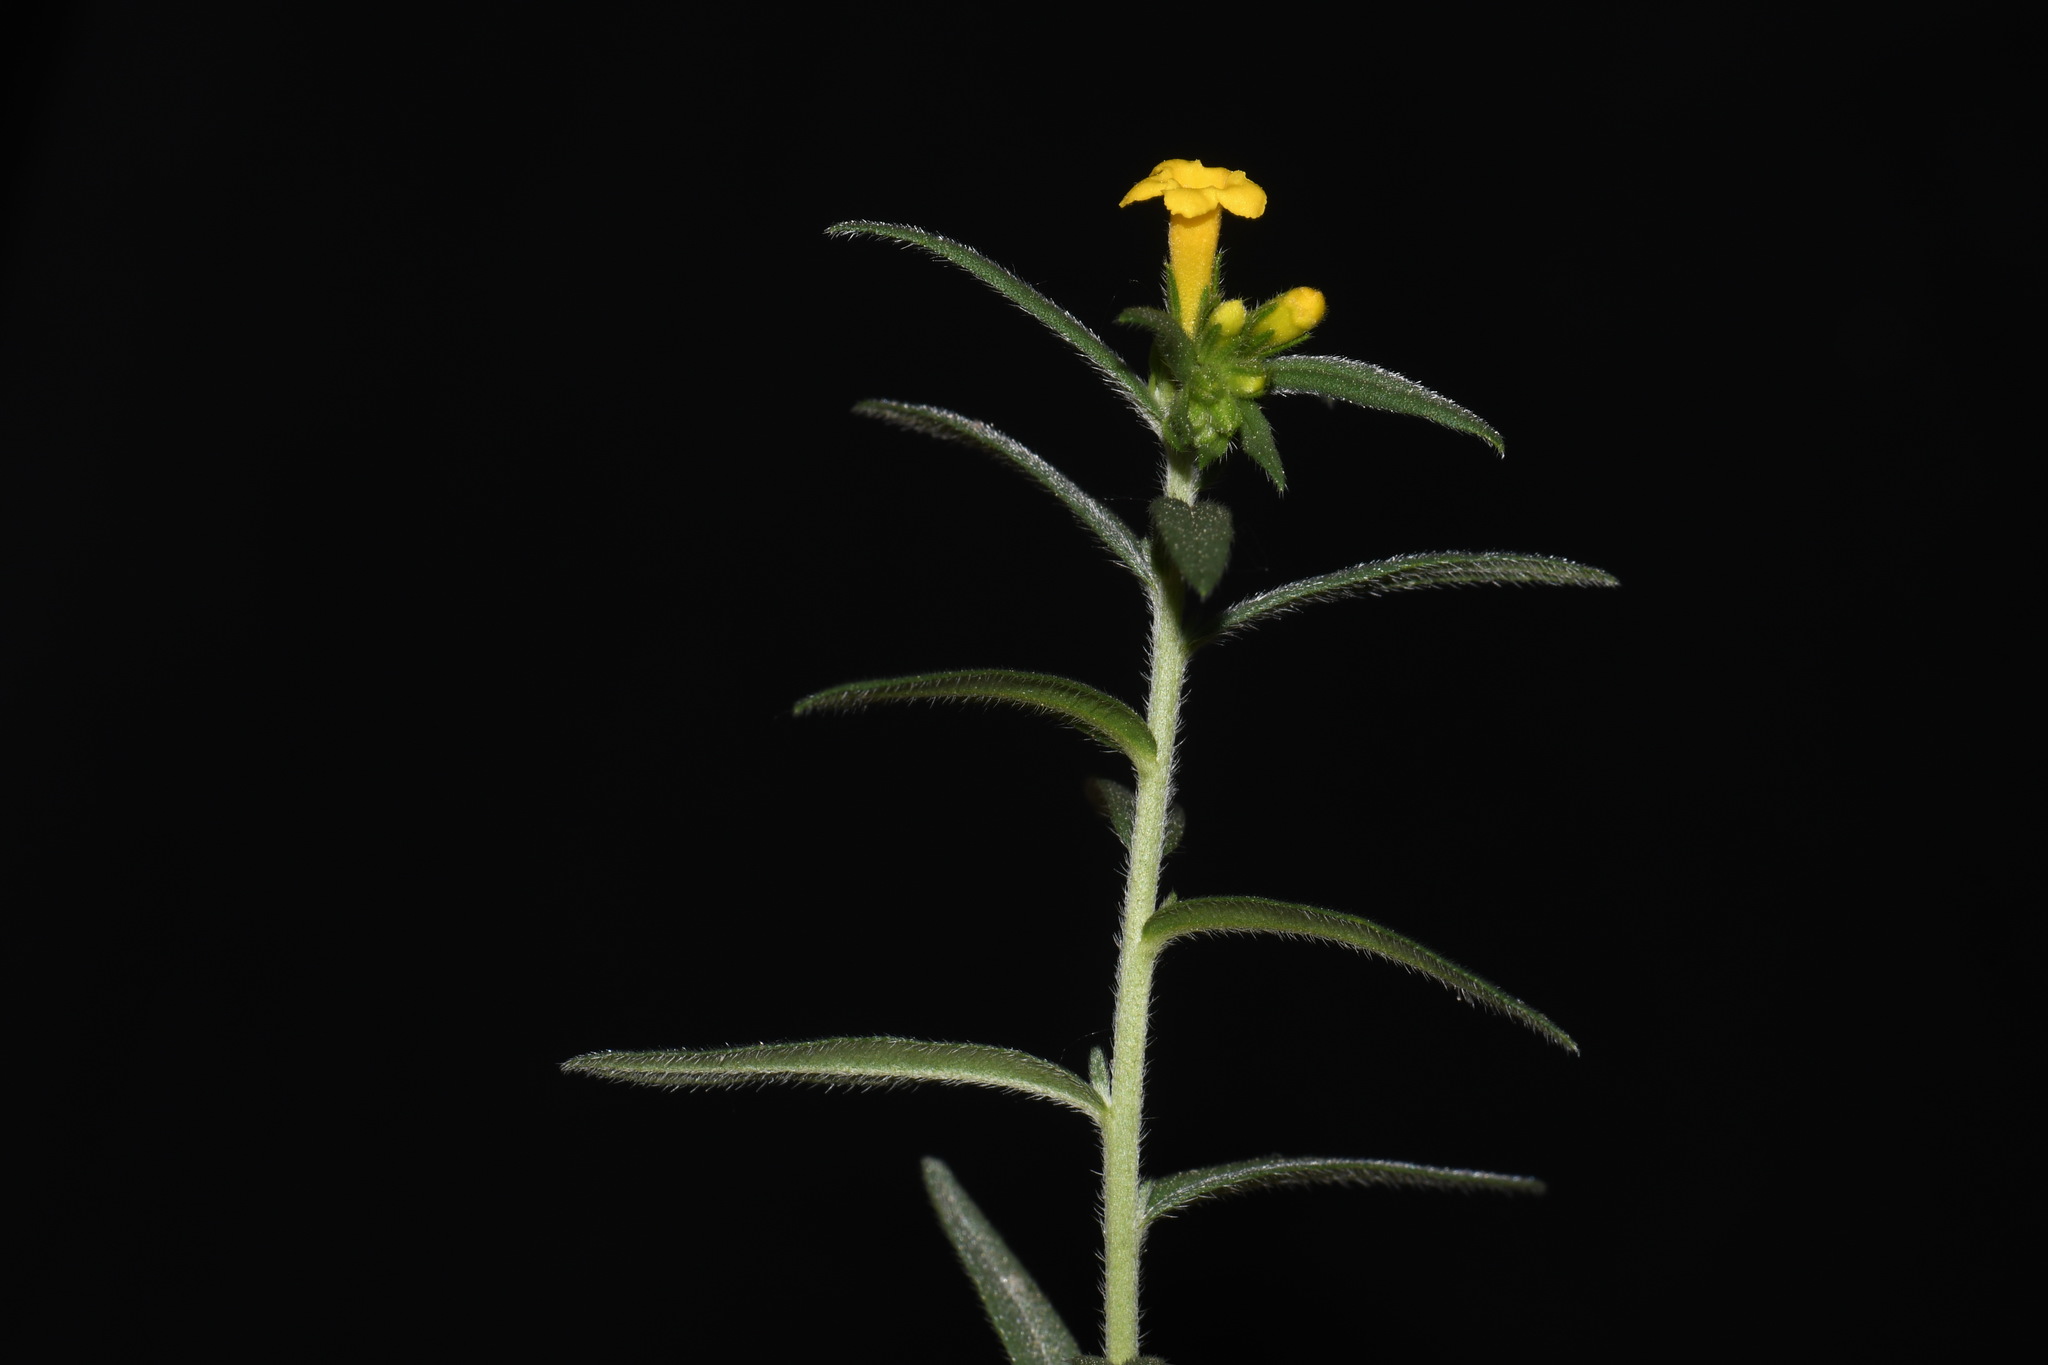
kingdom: Plantae
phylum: Tracheophyta
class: Magnoliopsida
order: Boraginales
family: Boraginaceae
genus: Lithospermum
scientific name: Lithospermum multiflorum
